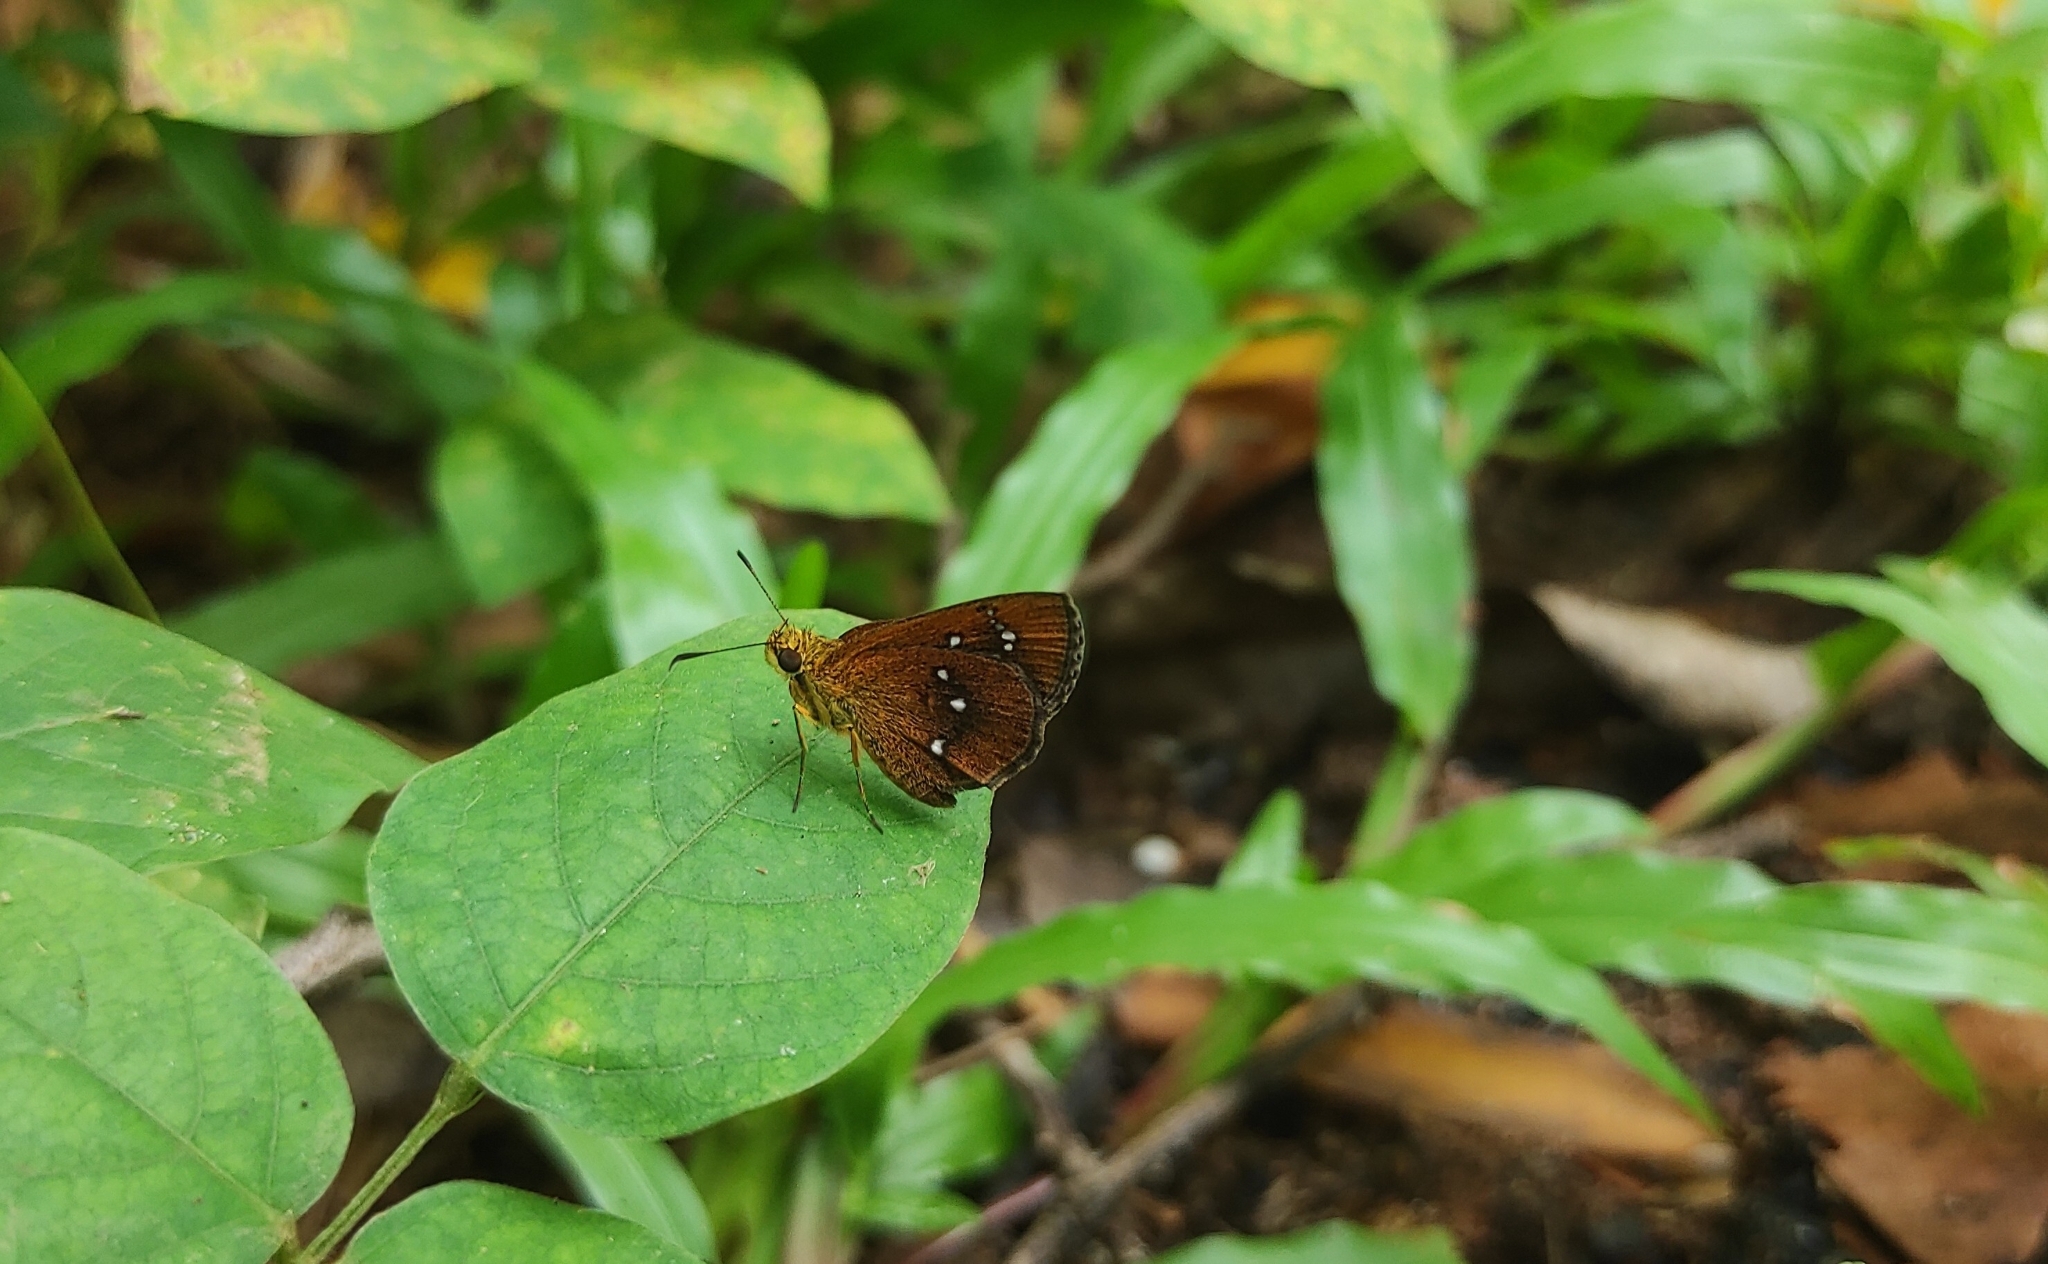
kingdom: Animalia
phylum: Arthropoda
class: Insecta
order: Lepidoptera
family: Hesperiidae
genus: Iambrix
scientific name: Iambrix salsala
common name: Chestnut bob
